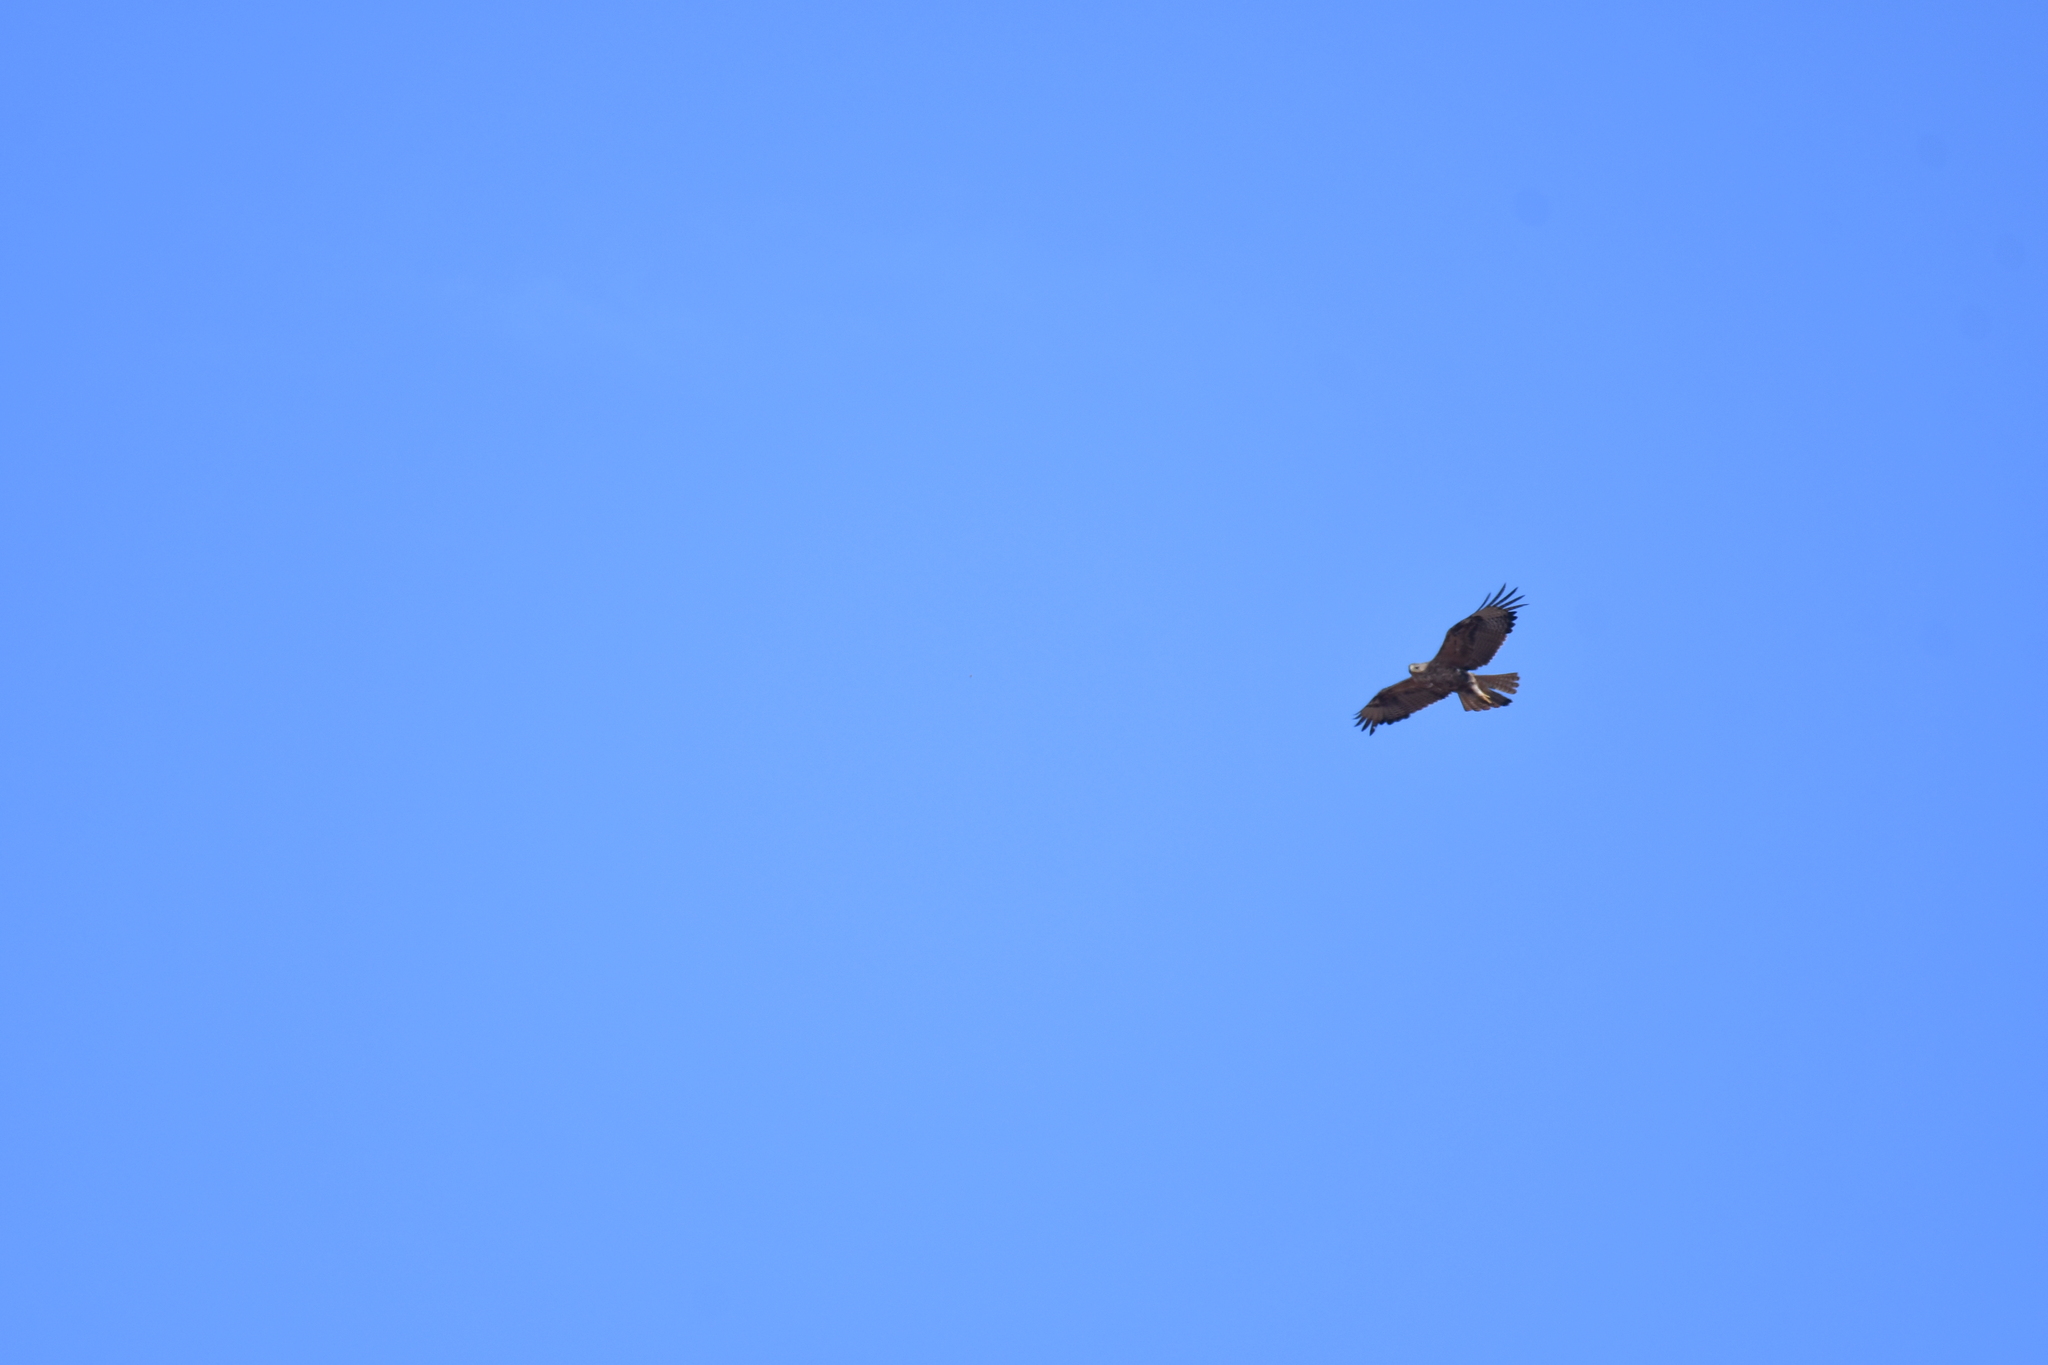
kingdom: Animalia
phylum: Chordata
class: Aves
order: Accipitriformes
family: Accipitridae
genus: Buteo
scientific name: Buteo rufinus
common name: Long-legged buzzard
